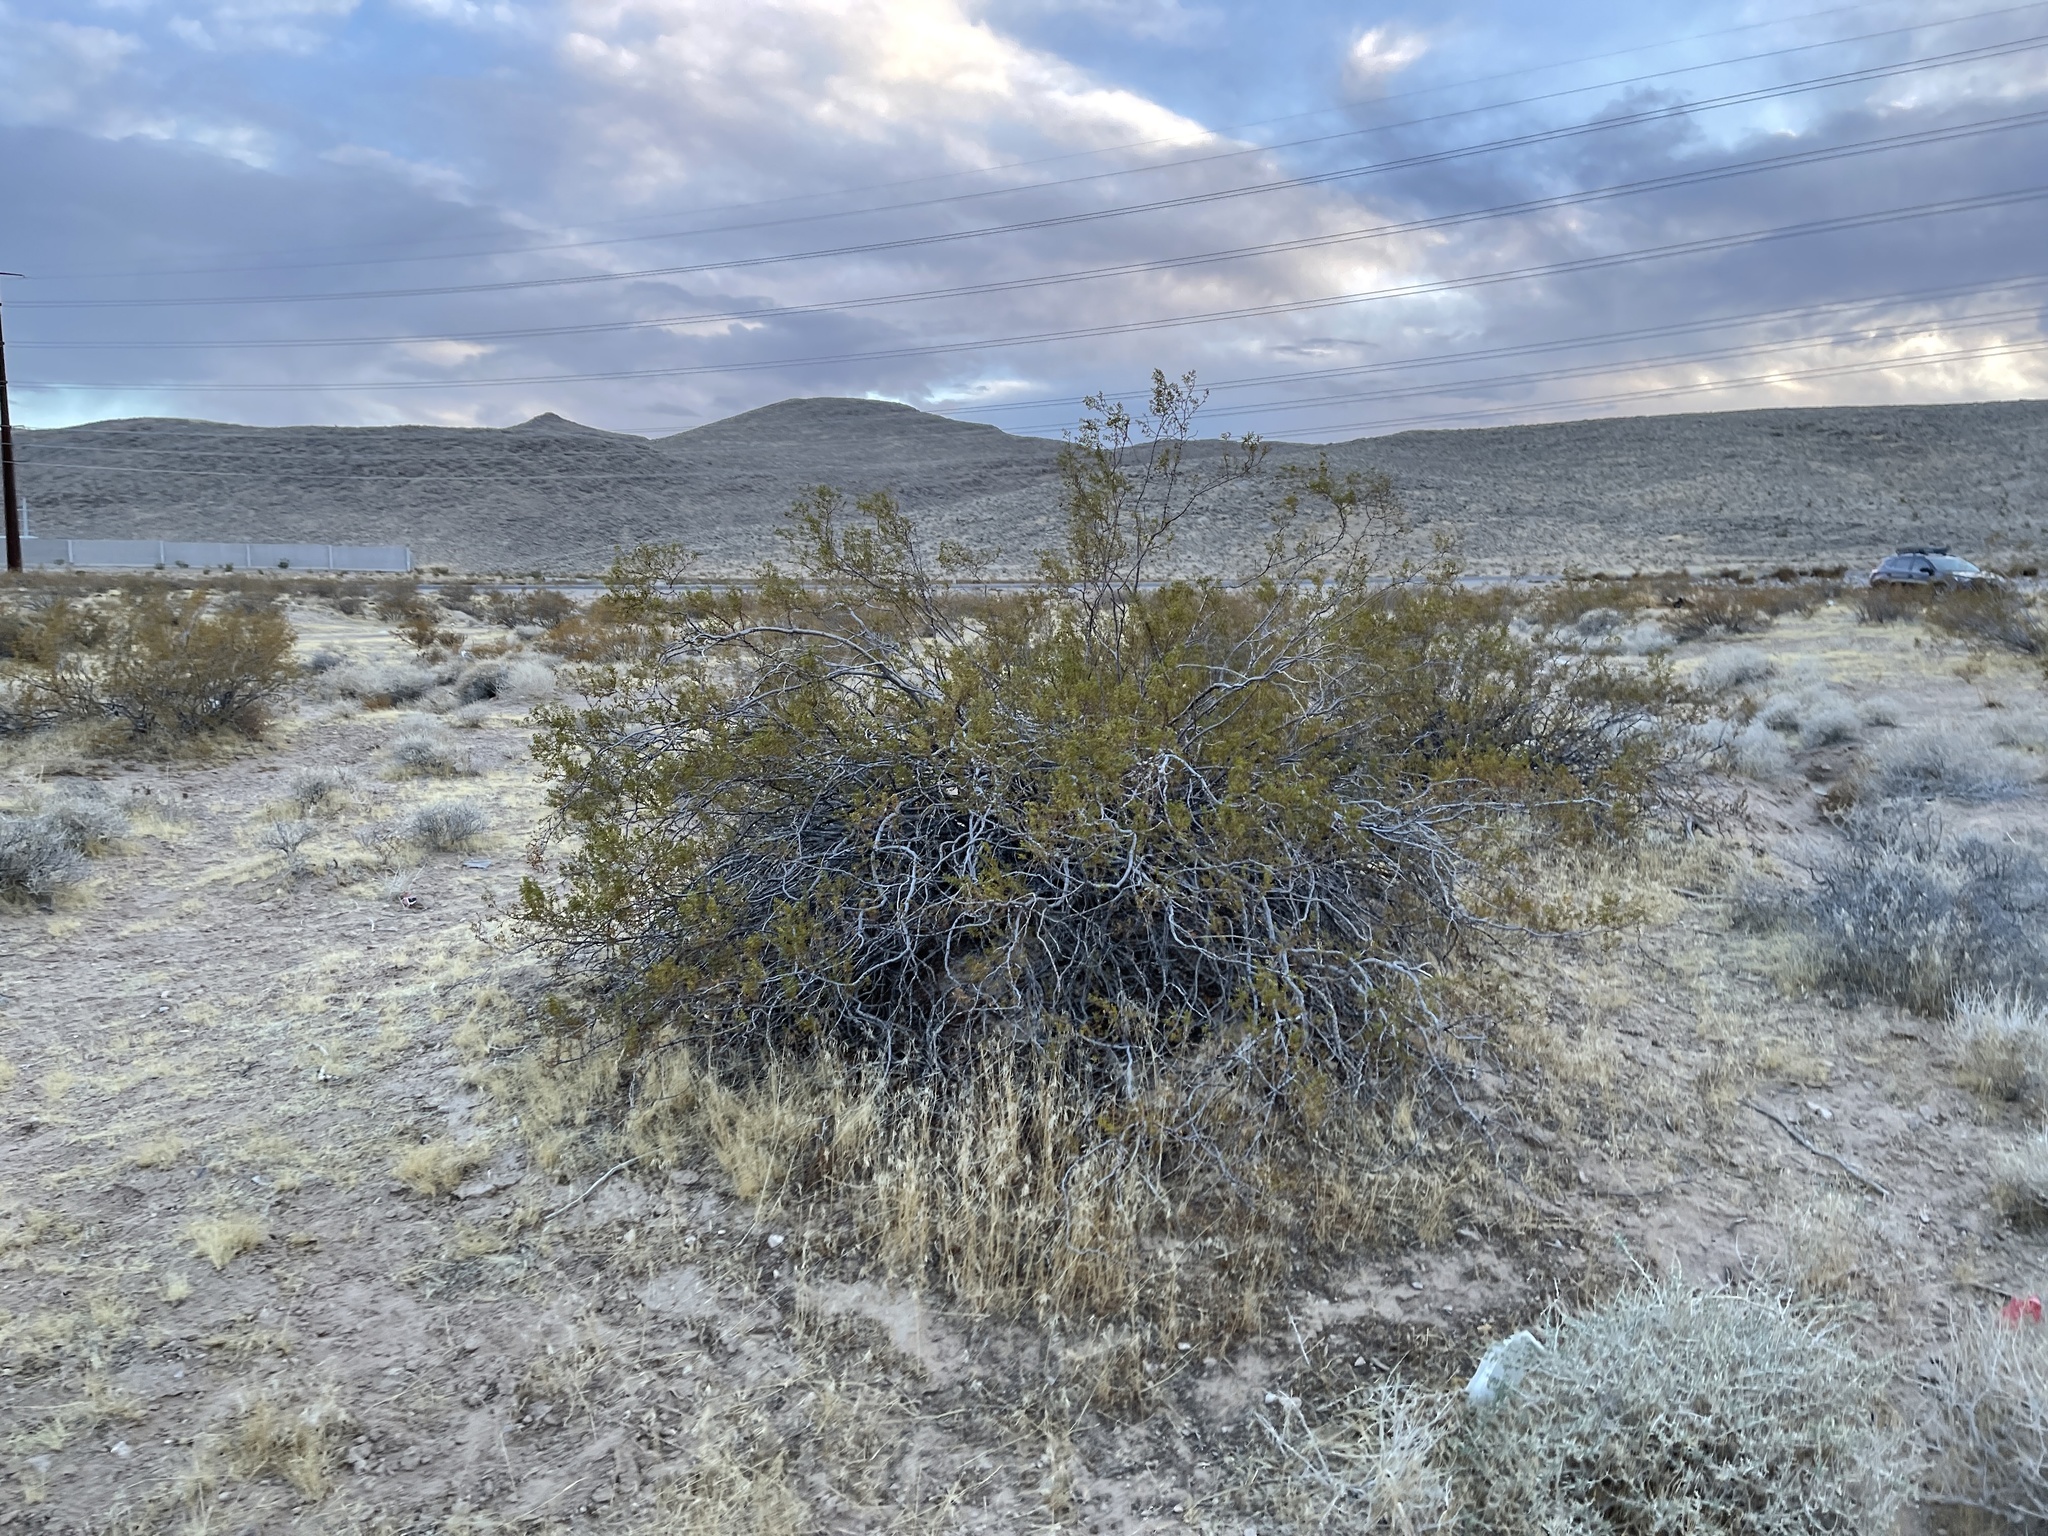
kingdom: Plantae
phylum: Tracheophyta
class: Magnoliopsida
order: Zygophyllales
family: Zygophyllaceae
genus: Larrea
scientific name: Larrea tridentata
